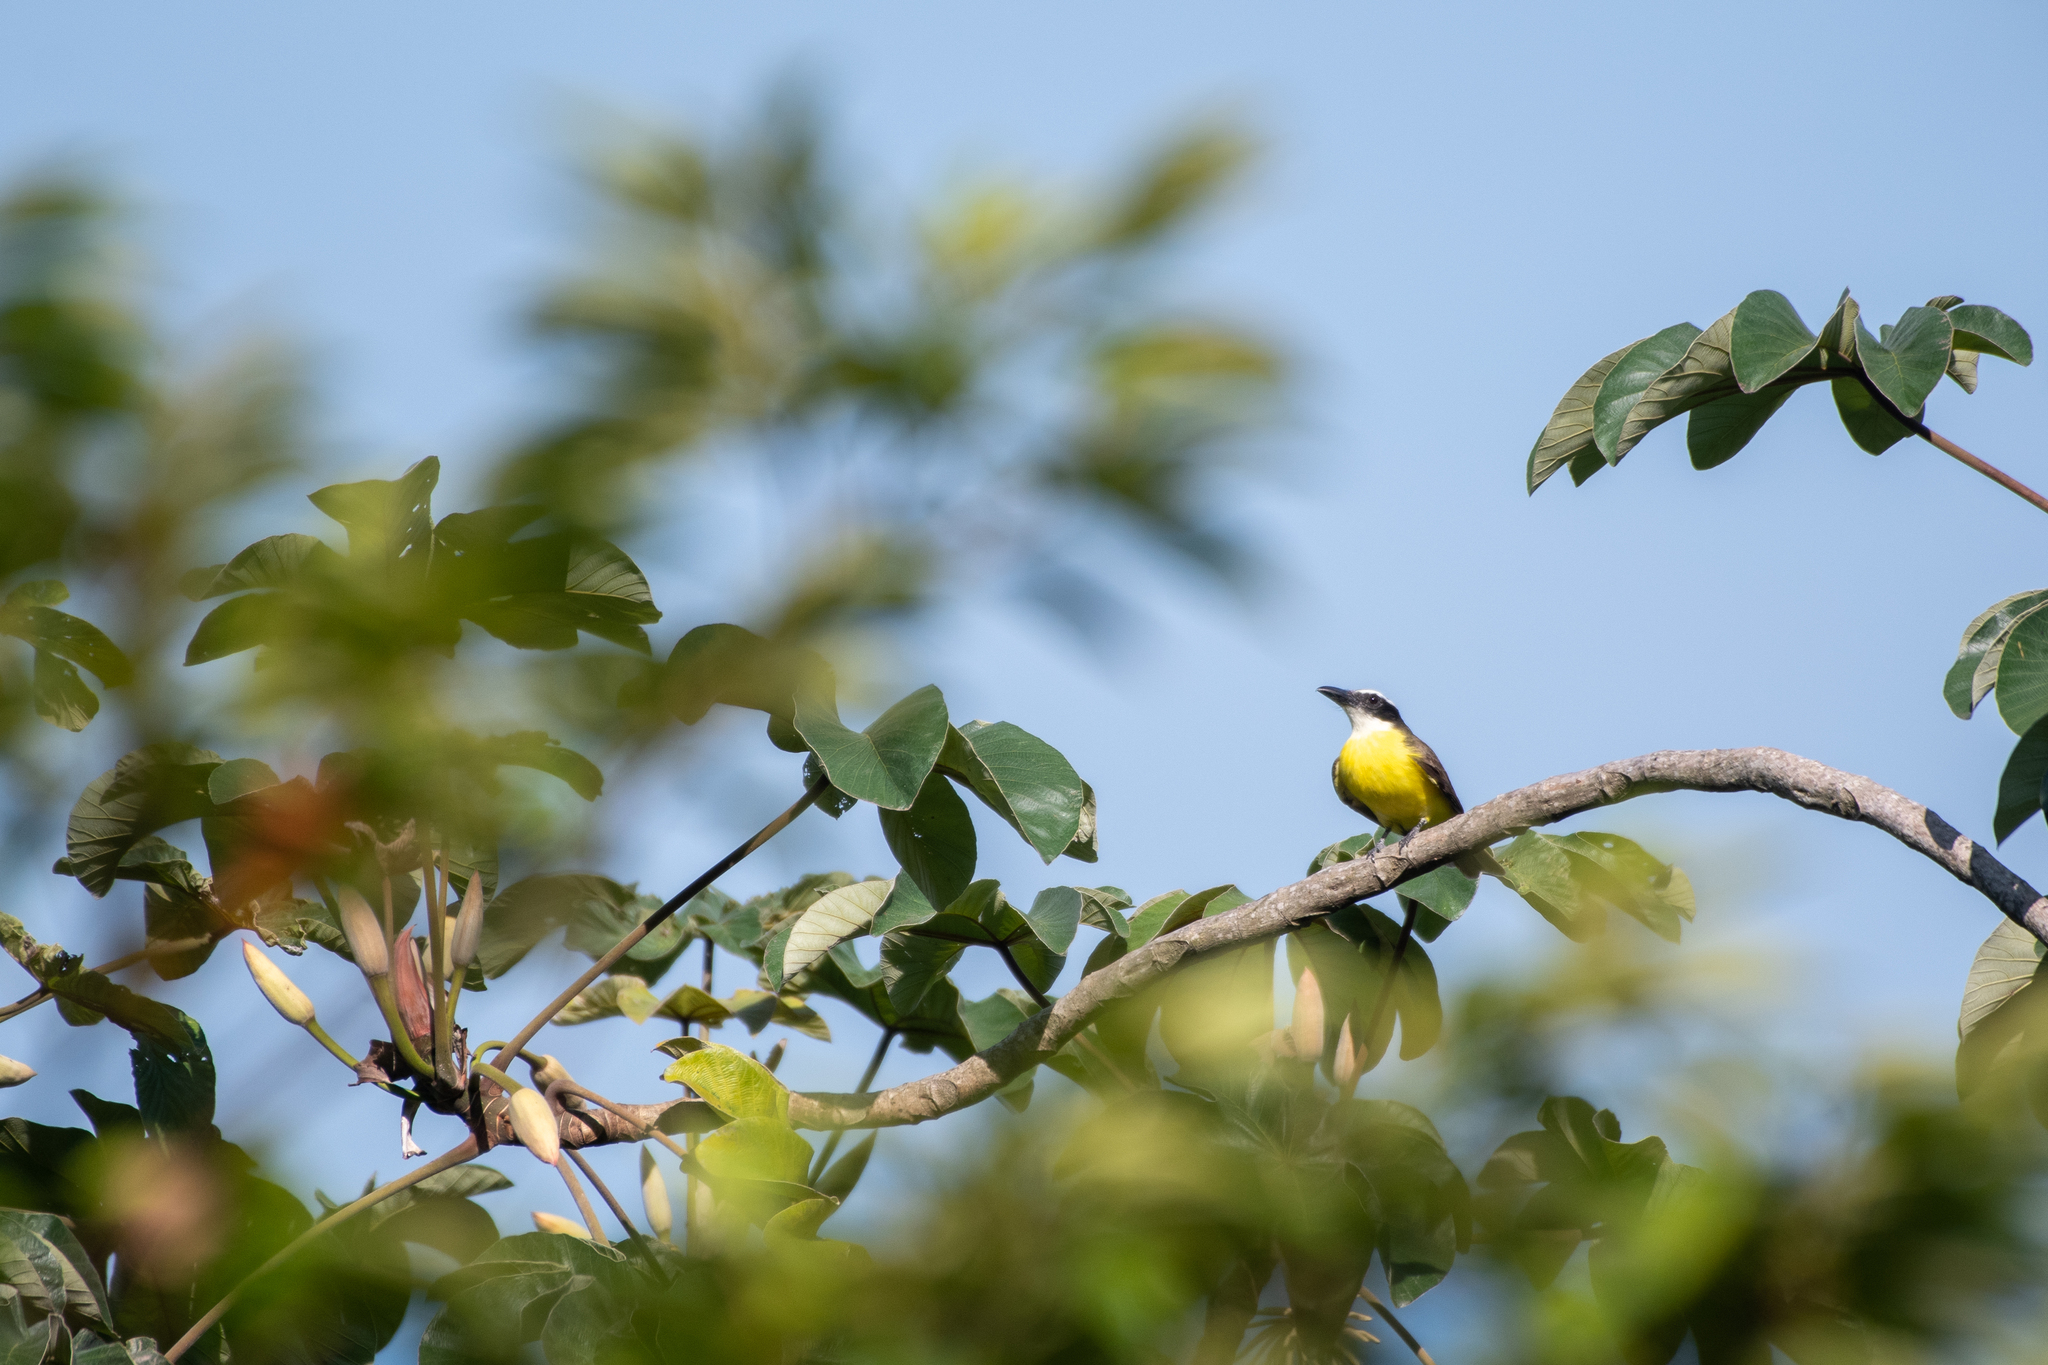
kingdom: Animalia
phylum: Chordata
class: Aves
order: Passeriformes
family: Tyrannidae
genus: Megarynchus
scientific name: Megarynchus pitangua
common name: Boat-billed flycatcher
